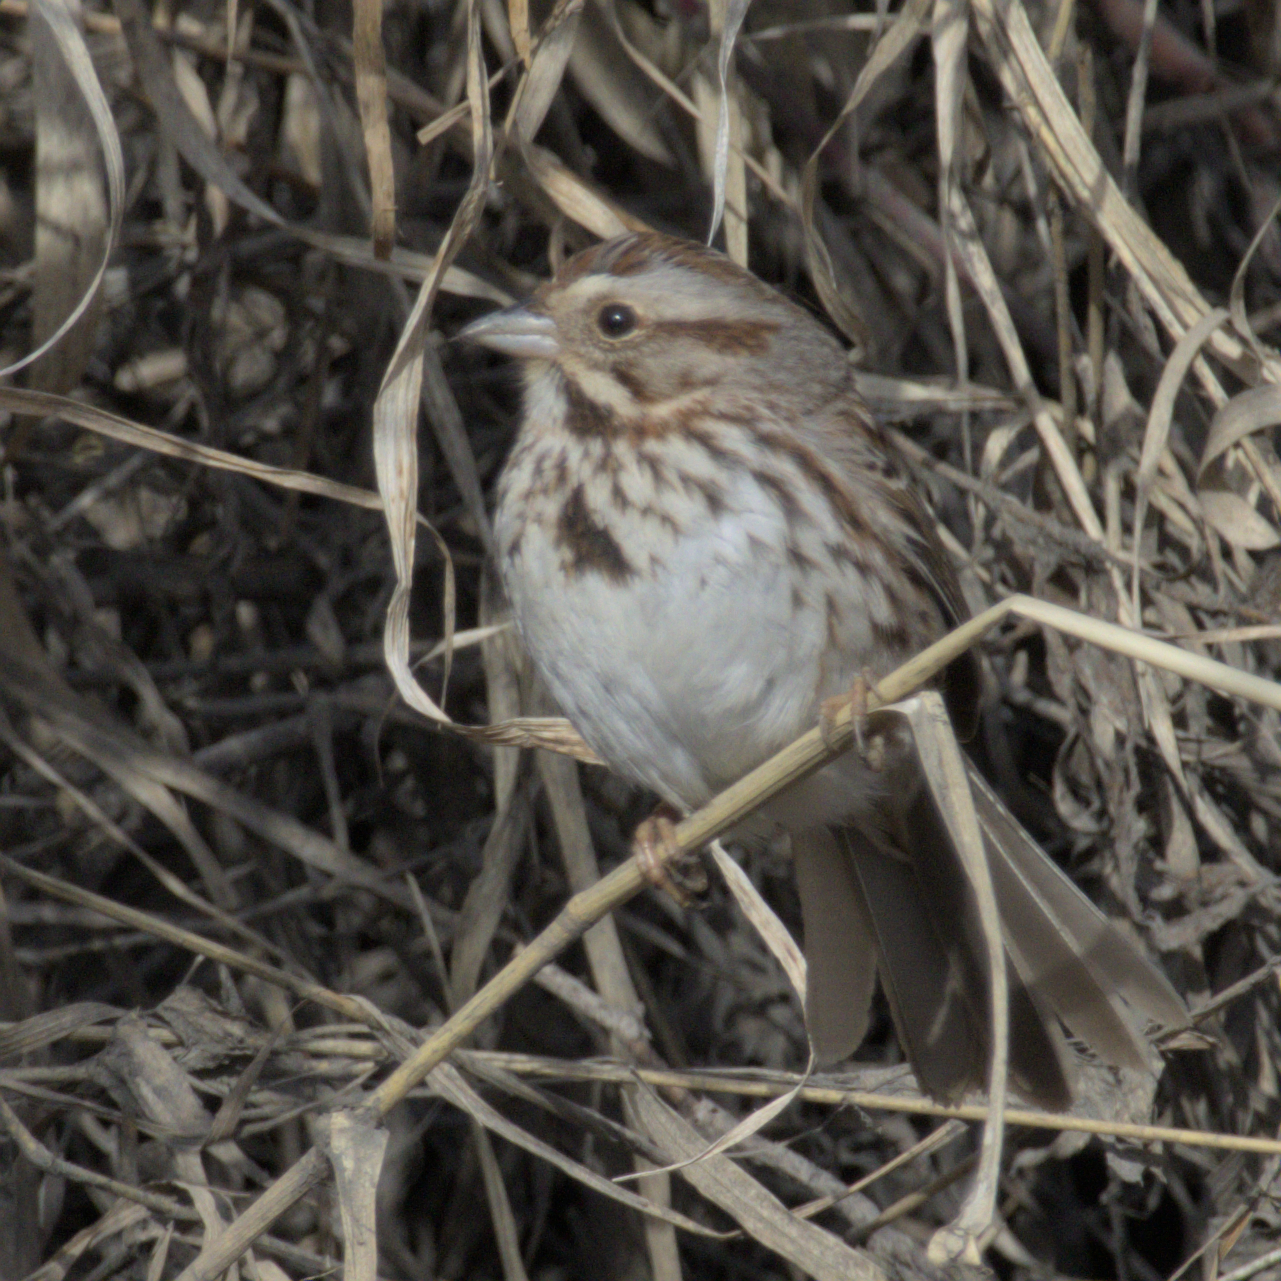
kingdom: Animalia
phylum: Chordata
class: Aves
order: Passeriformes
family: Passerellidae
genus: Melospiza
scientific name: Melospiza melodia
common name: Song sparrow
